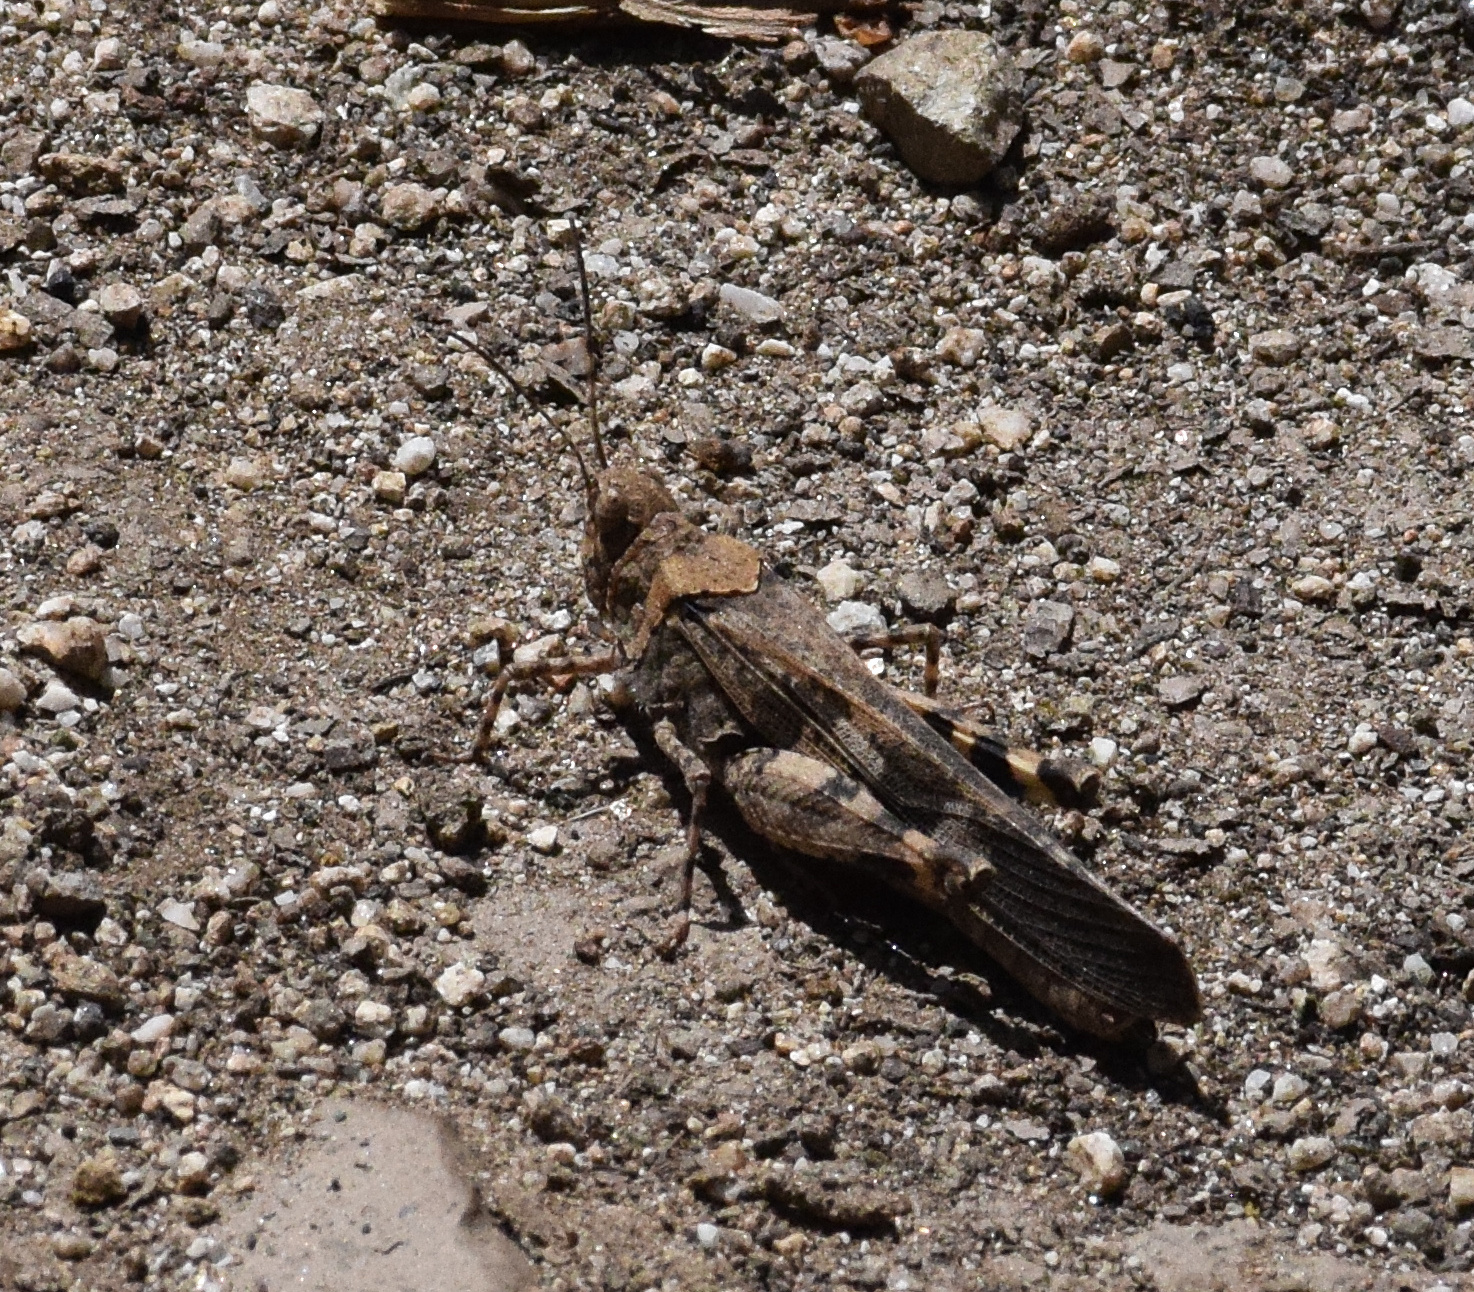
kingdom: Animalia
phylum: Arthropoda
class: Insecta
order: Orthoptera
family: Acrididae
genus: Trimerotropis
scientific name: Trimerotropis fontana
